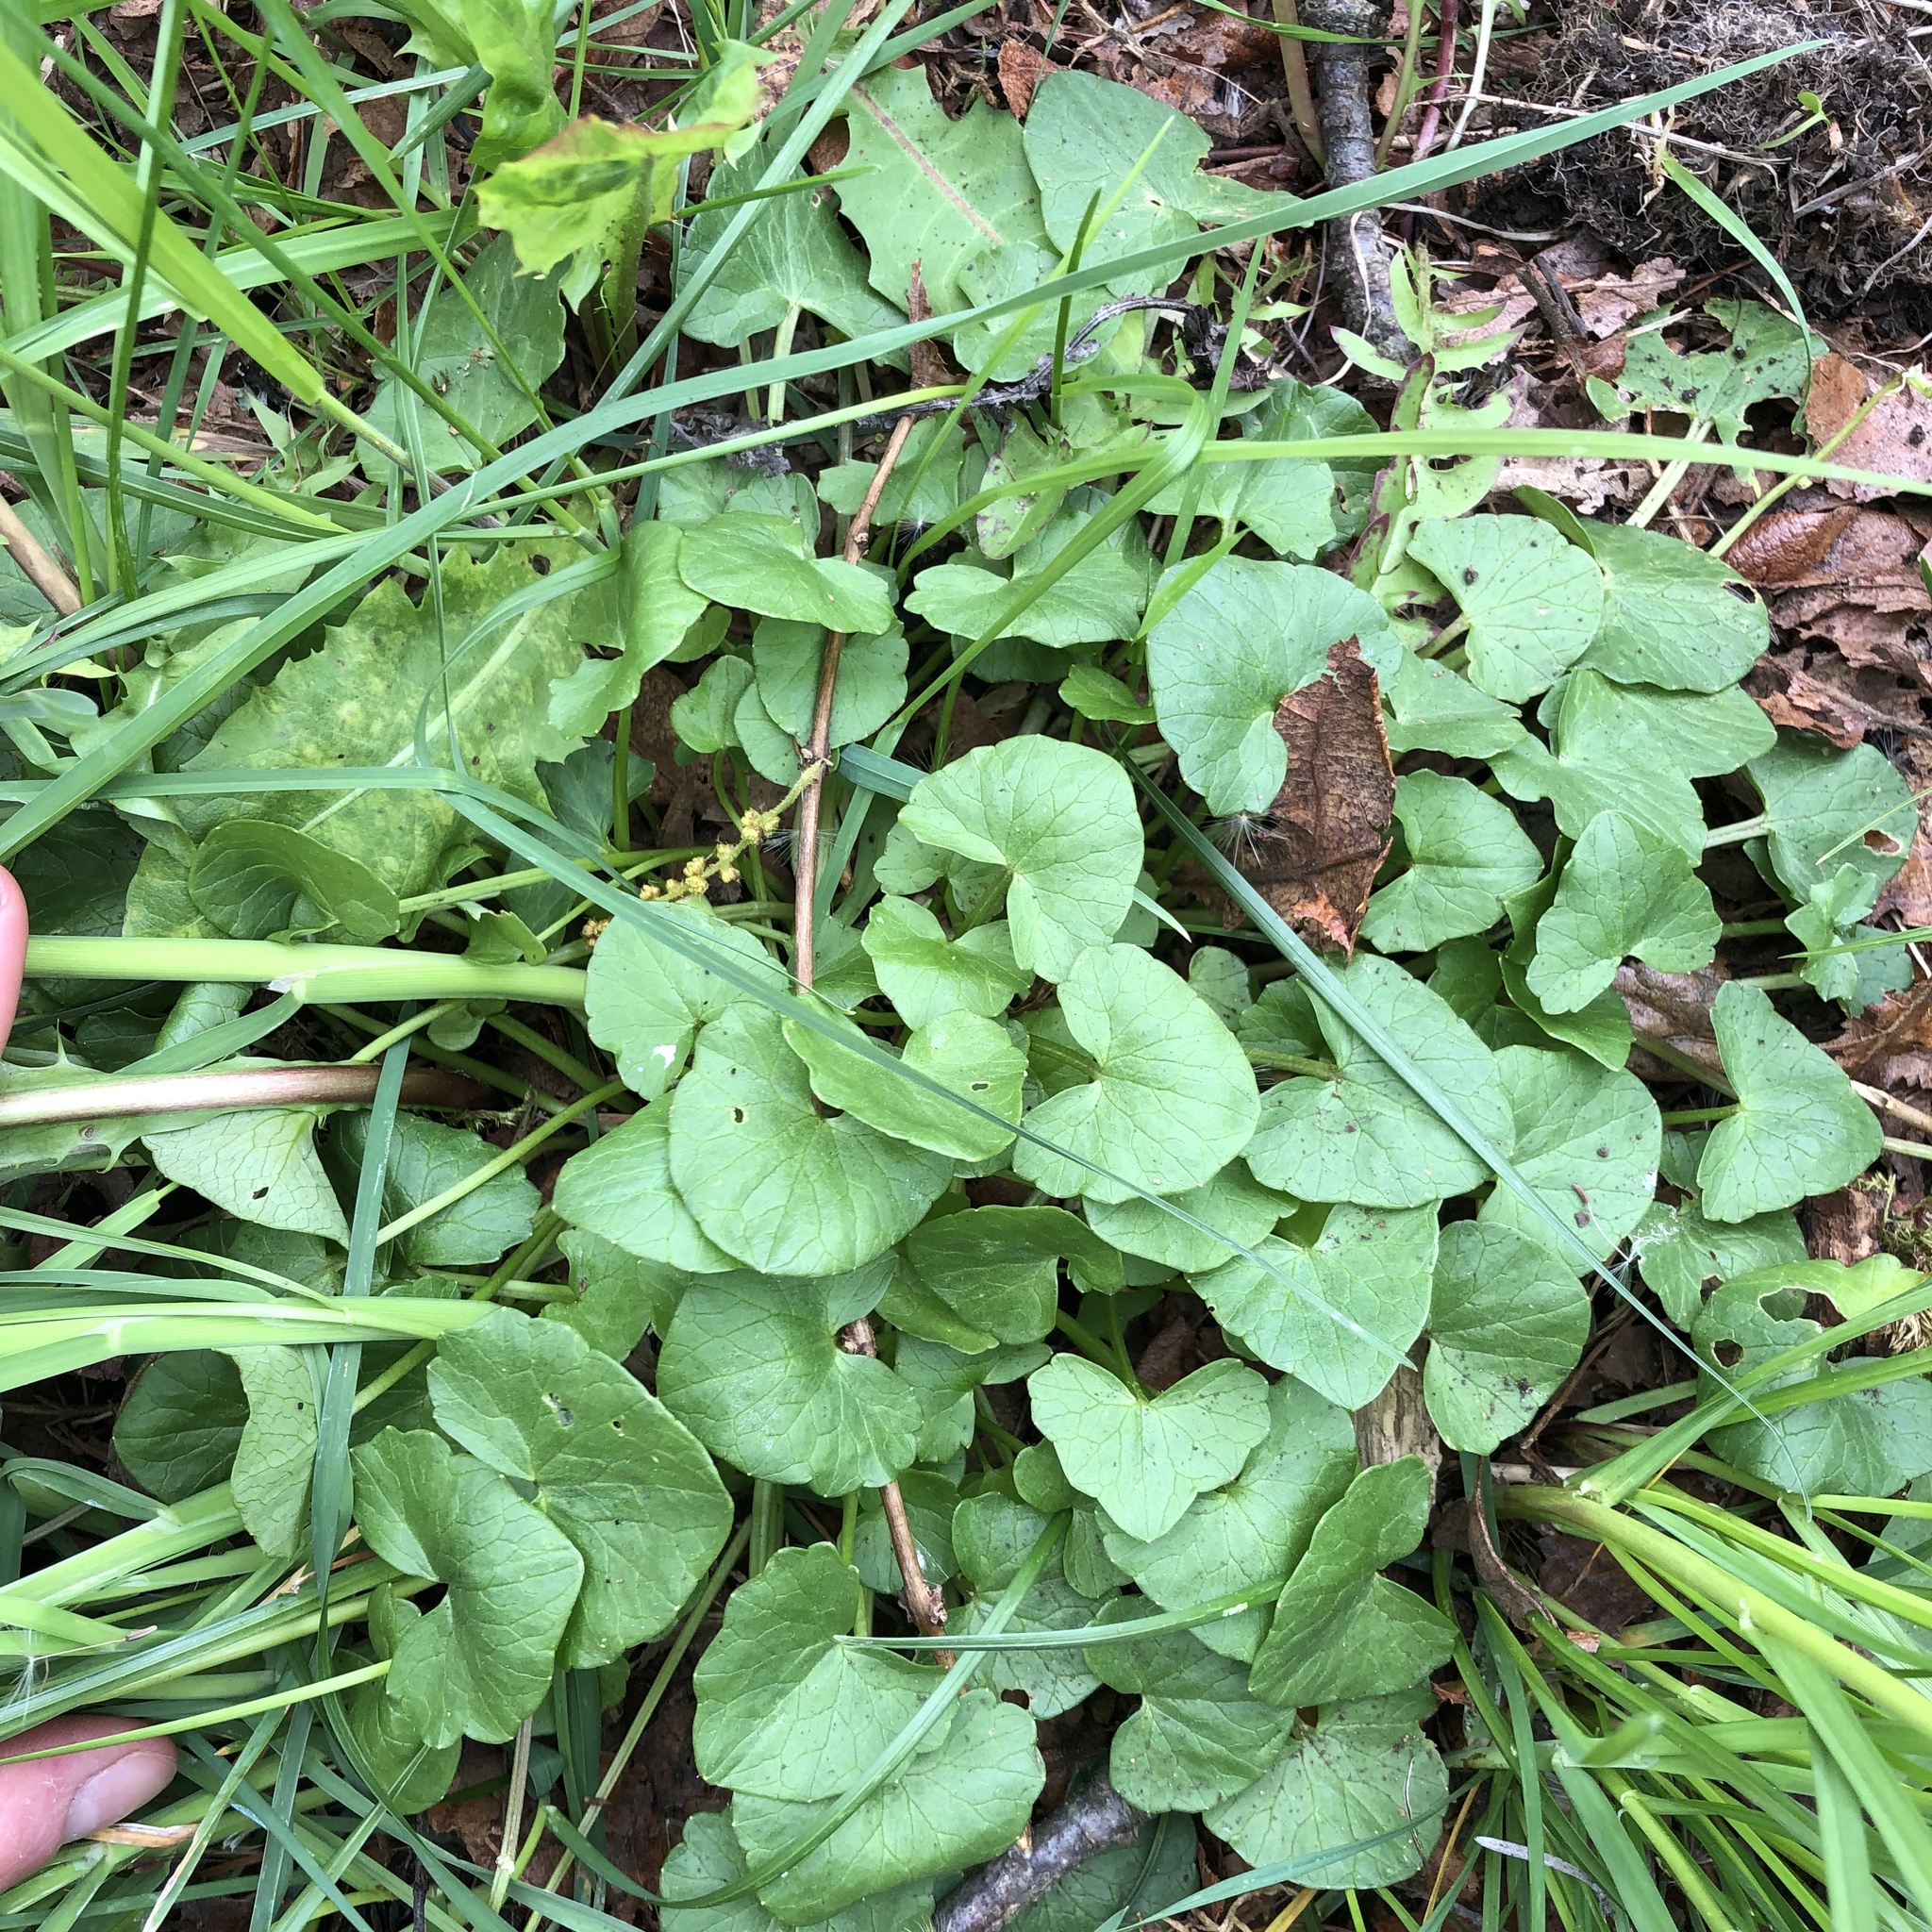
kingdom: Plantae
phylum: Tracheophyta
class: Magnoliopsida
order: Ranunculales
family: Ranunculaceae
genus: Ficaria
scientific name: Ficaria verna
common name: Lesser celandine
